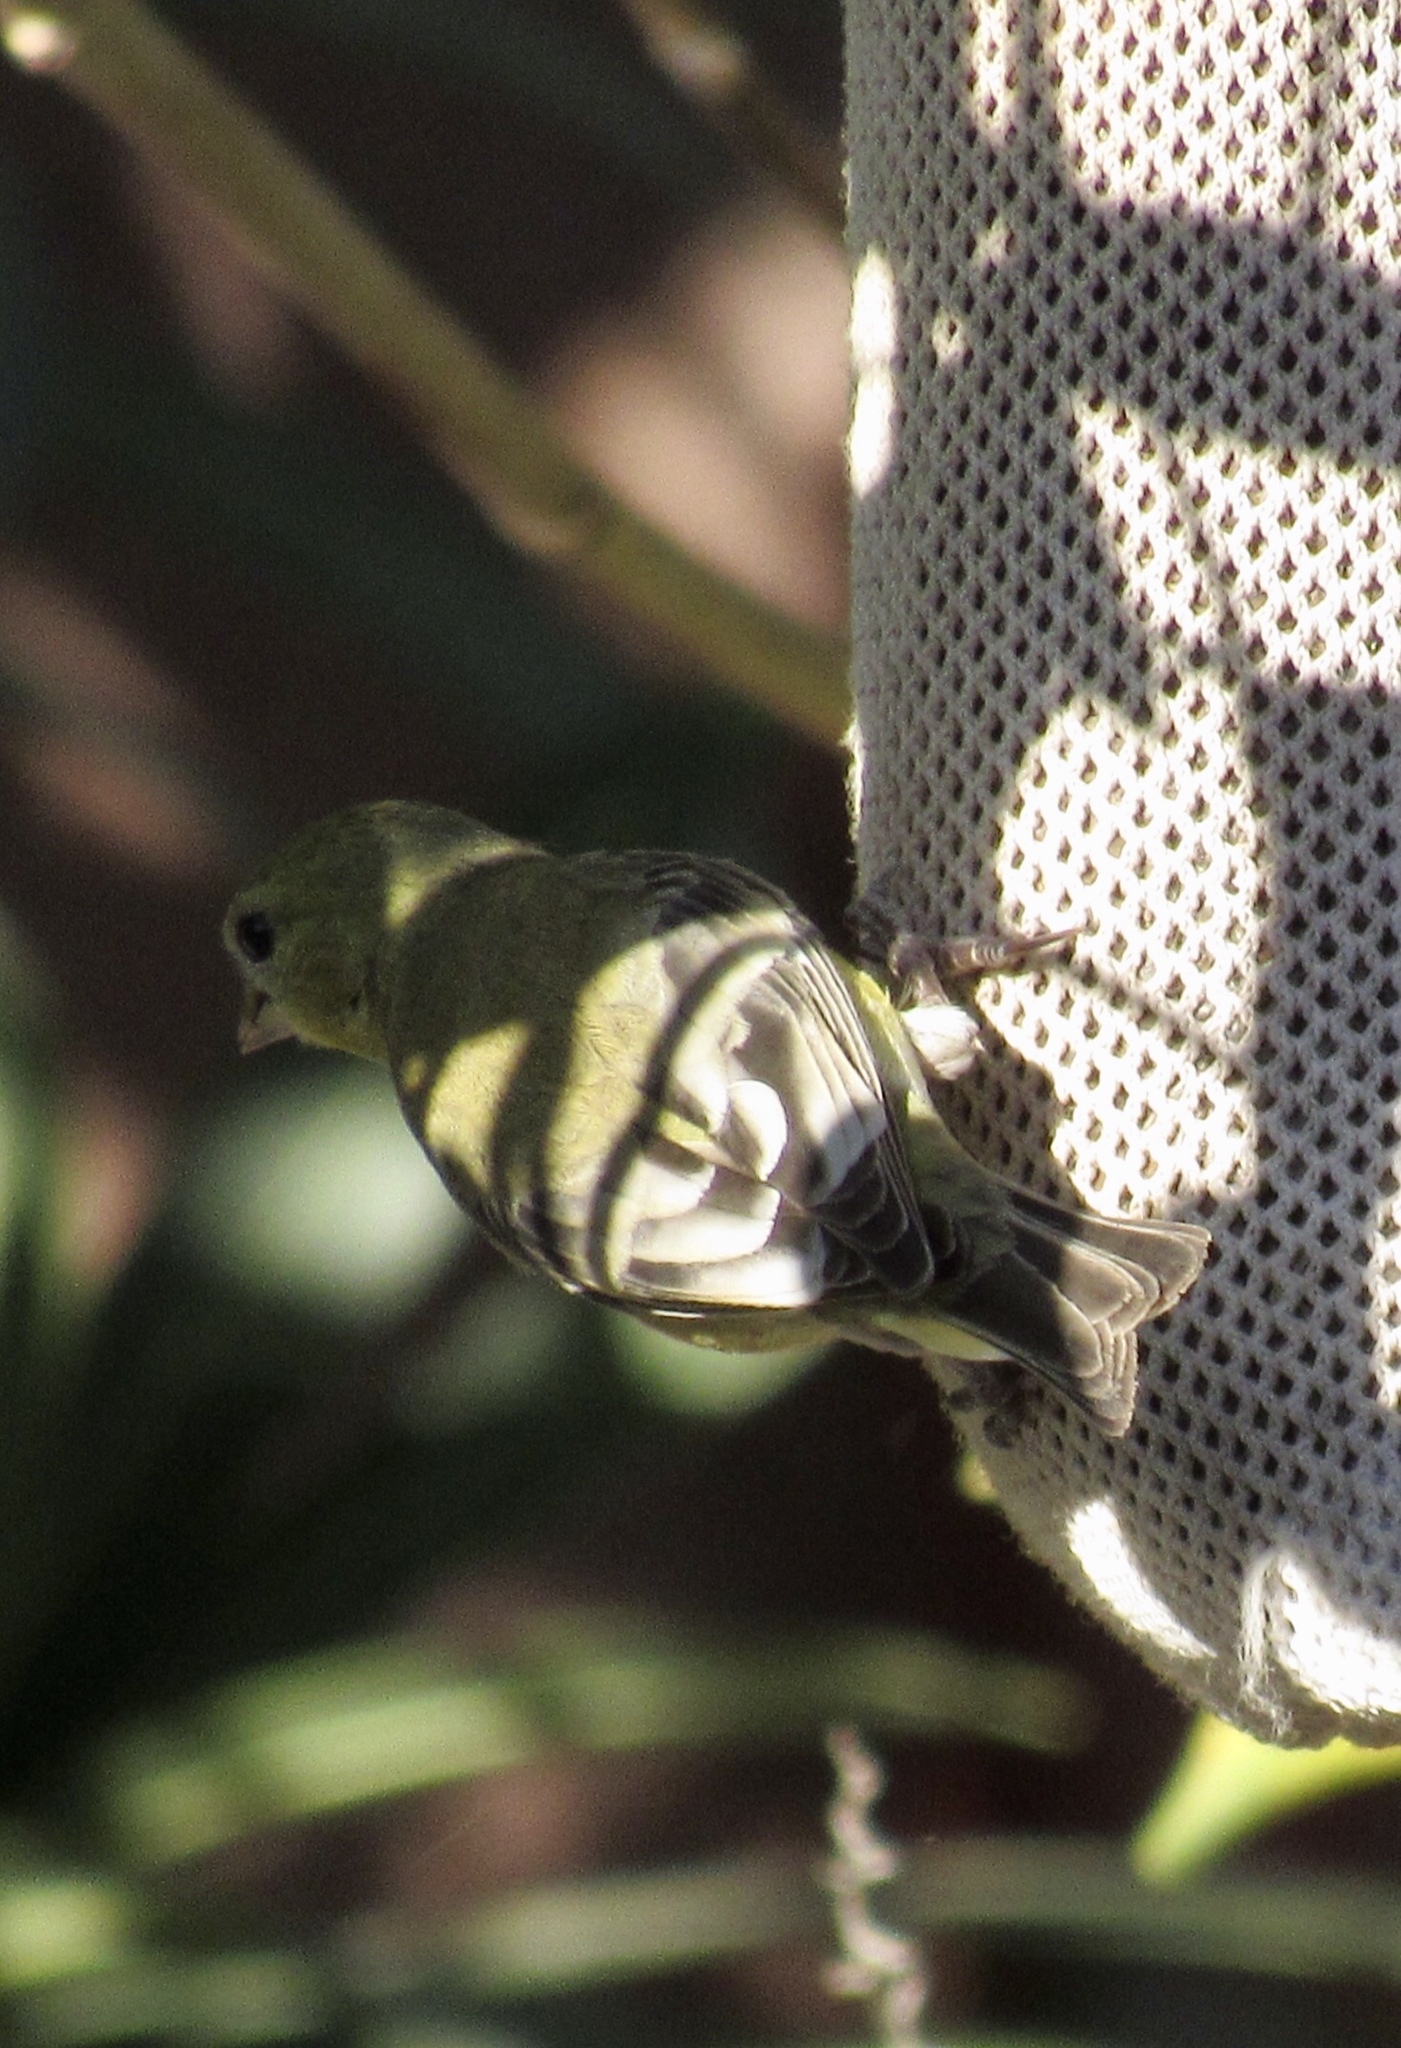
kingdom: Animalia
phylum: Chordata
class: Aves
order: Passeriformes
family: Fringillidae
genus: Spinus
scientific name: Spinus psaltria
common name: Lesser goldfinch
